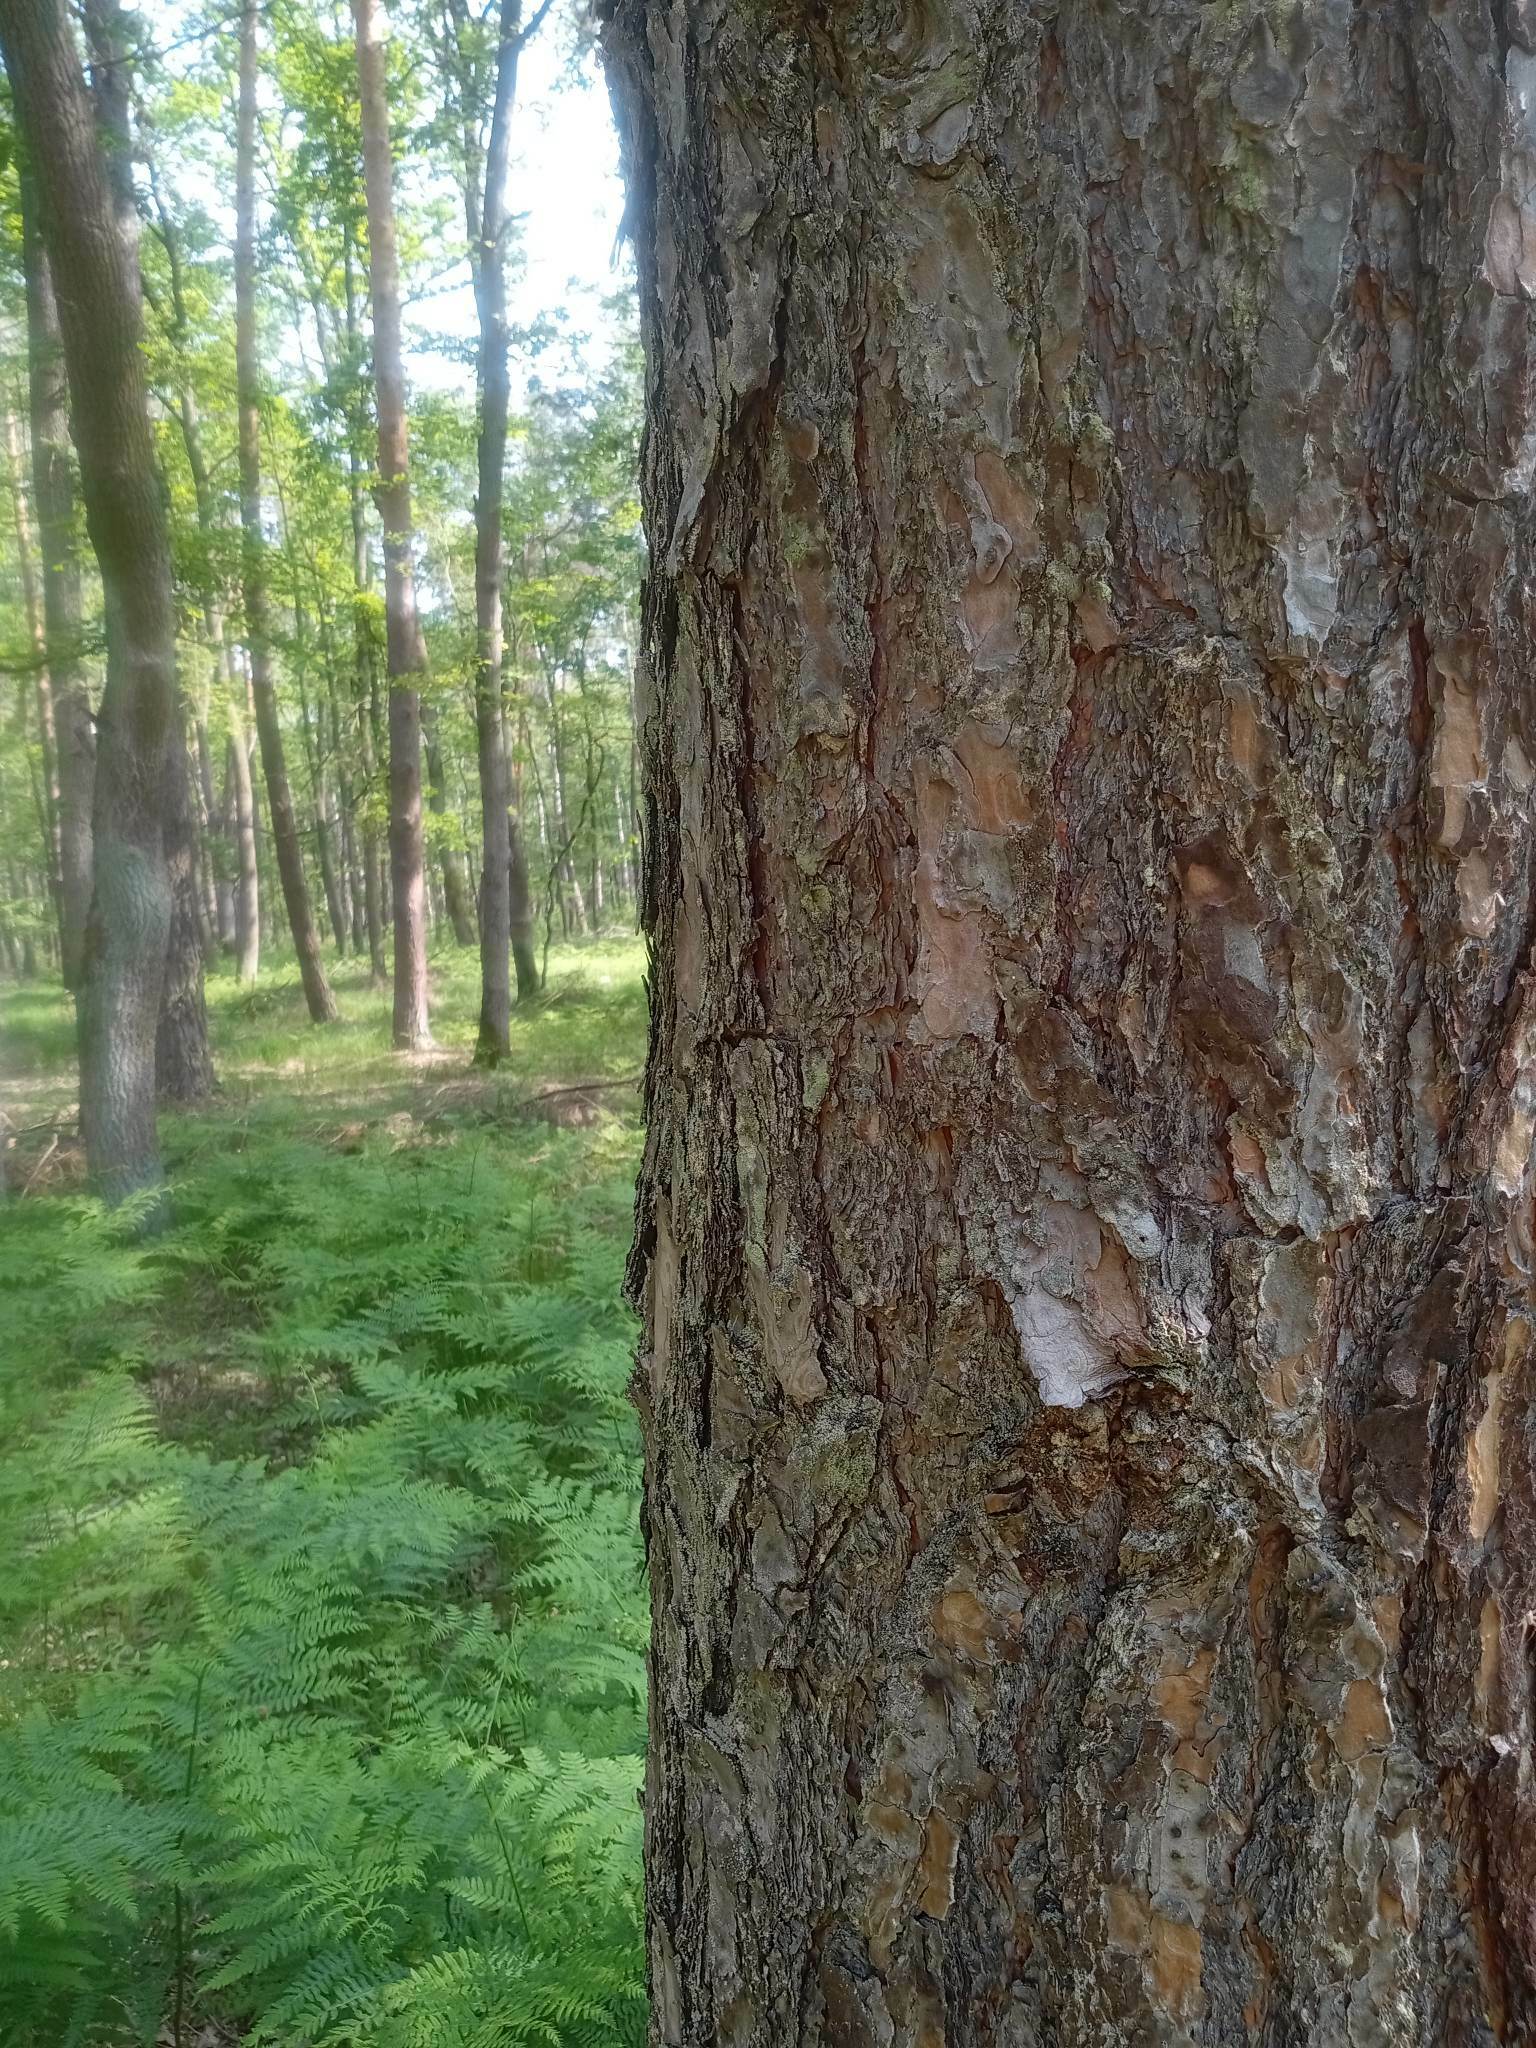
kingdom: Plantae
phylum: Tracheophyta
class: Pinopsida
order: Pinales
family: Pinaceae
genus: Pinus
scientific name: Pinus sylvestris
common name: Scots pine
